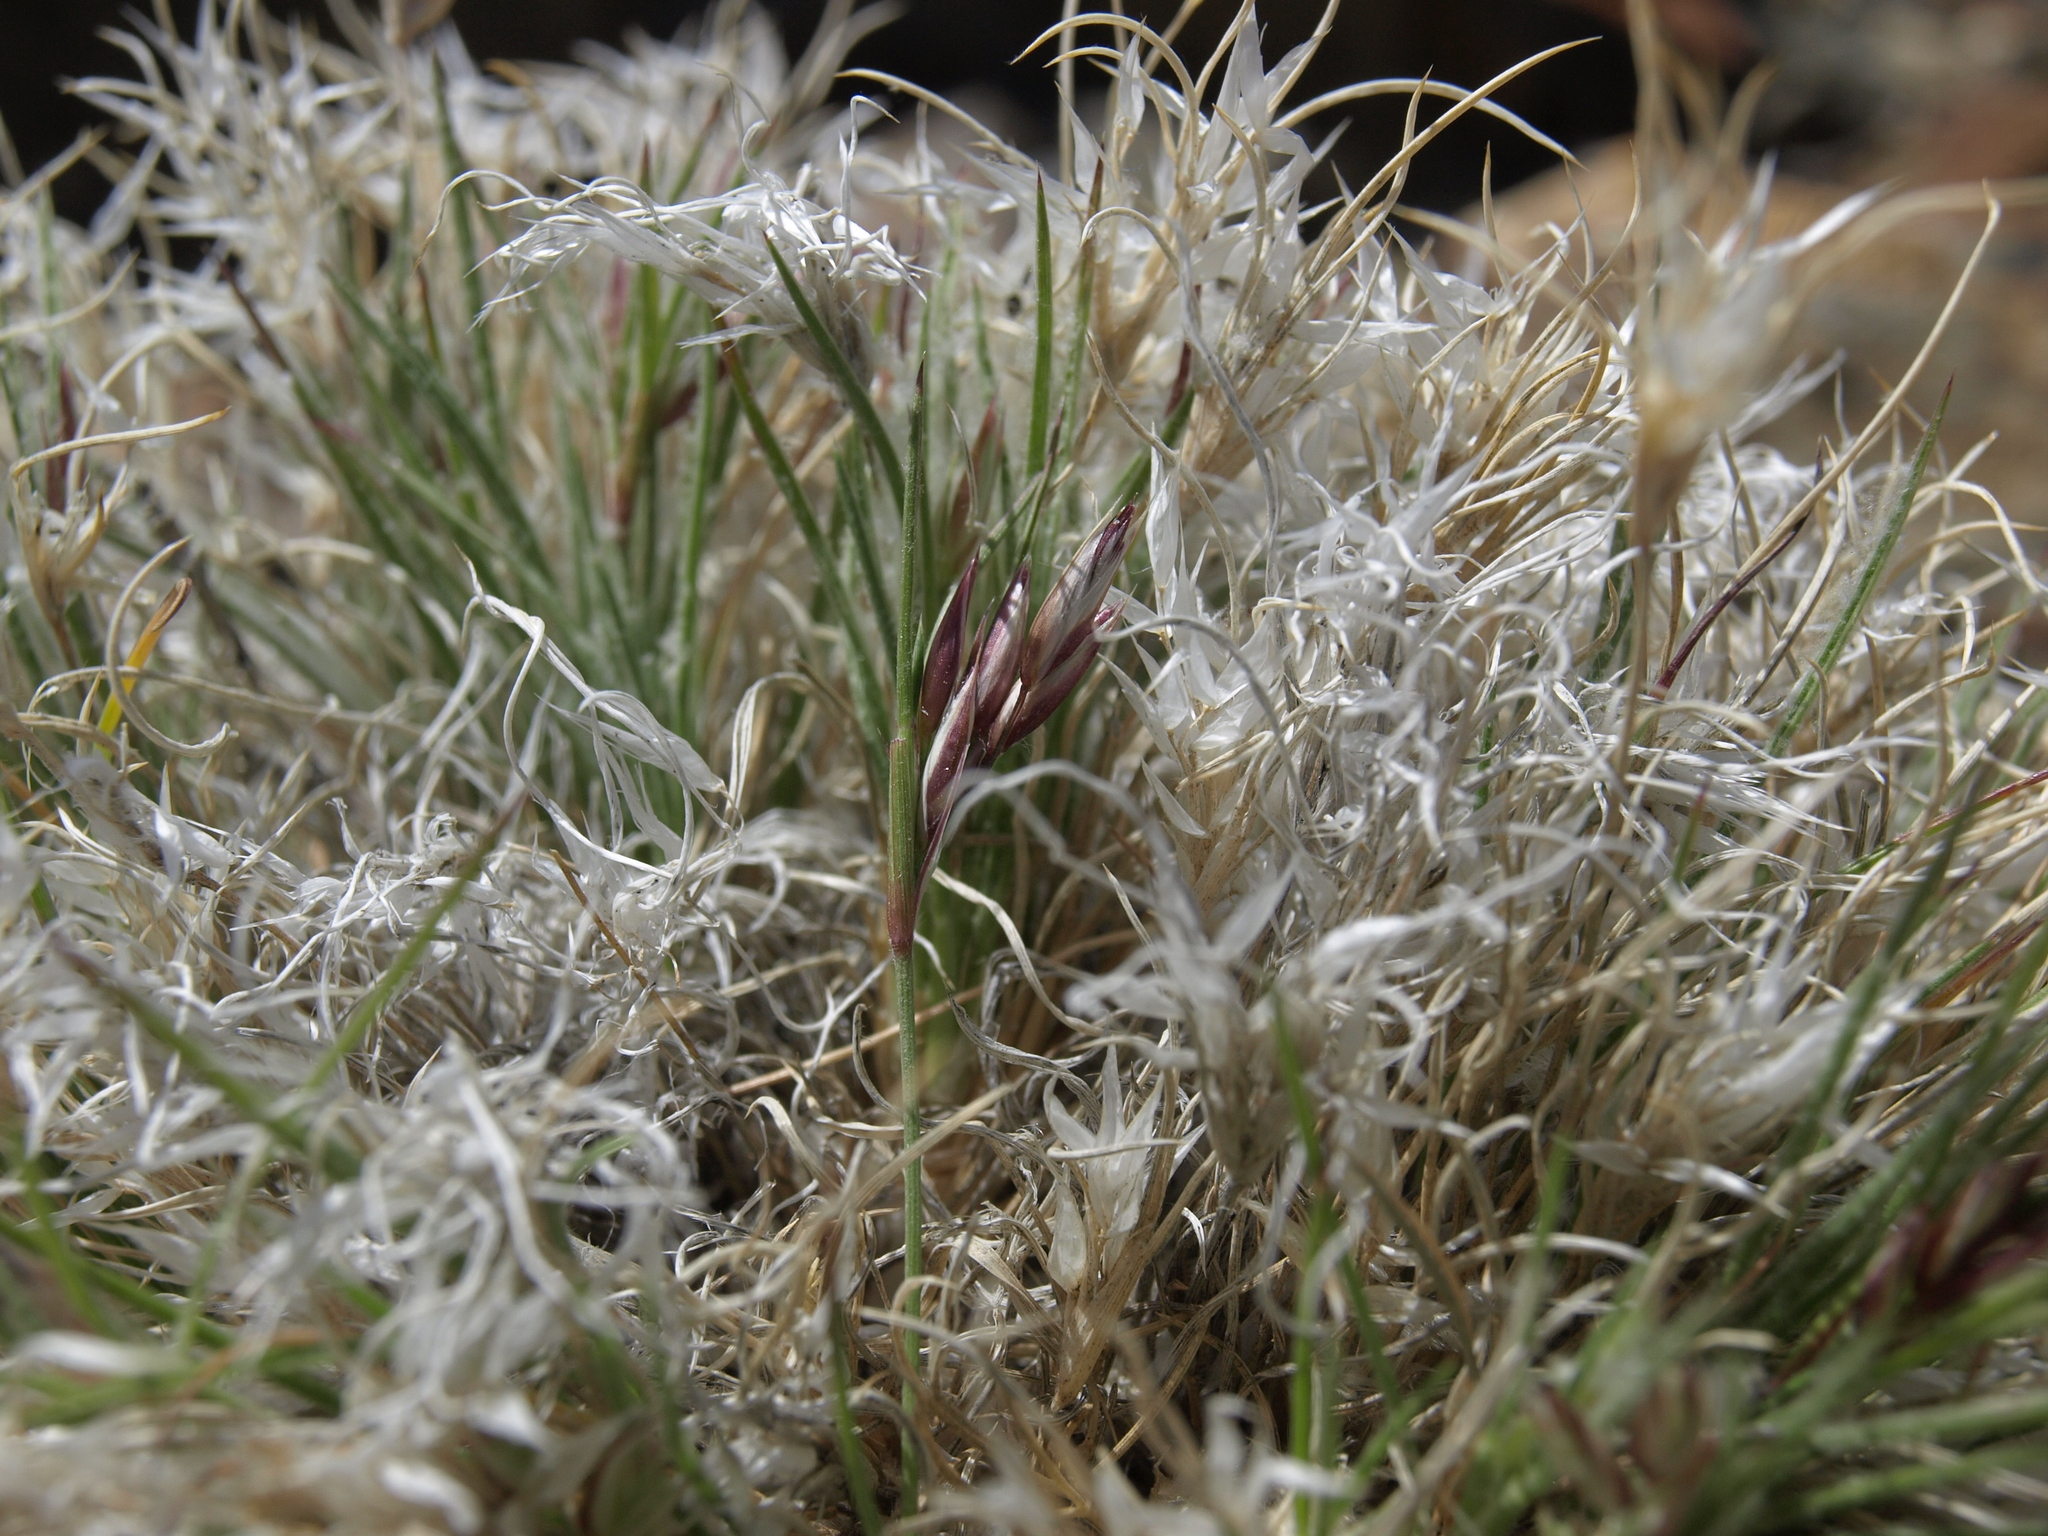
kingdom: Plantae
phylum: Tracheophyta
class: Liliopsida
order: Poales
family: Poaceae
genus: Dasyochloa
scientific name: Dasyochloa pulchella
